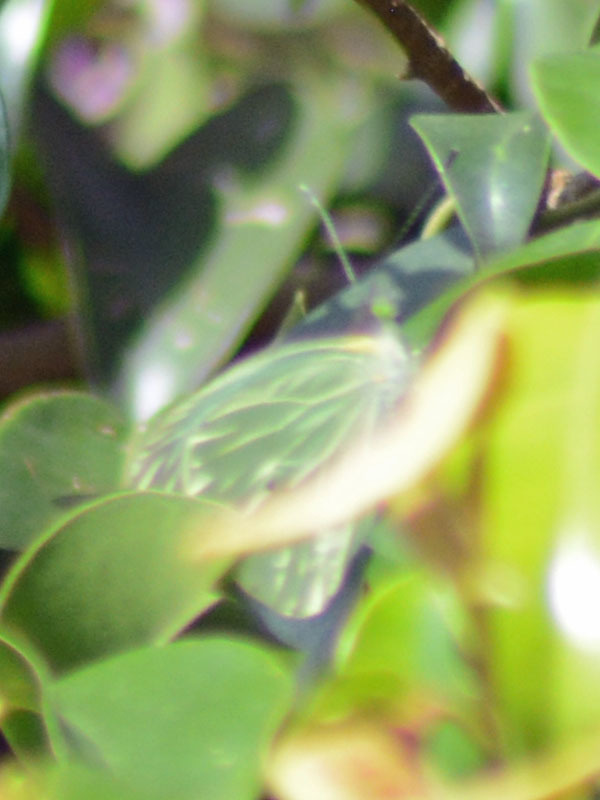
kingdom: Animalia
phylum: Arthropoda
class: Insecta
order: Lepidoptera
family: Pieridae
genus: Leptophobia
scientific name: Leptophobia aripa
